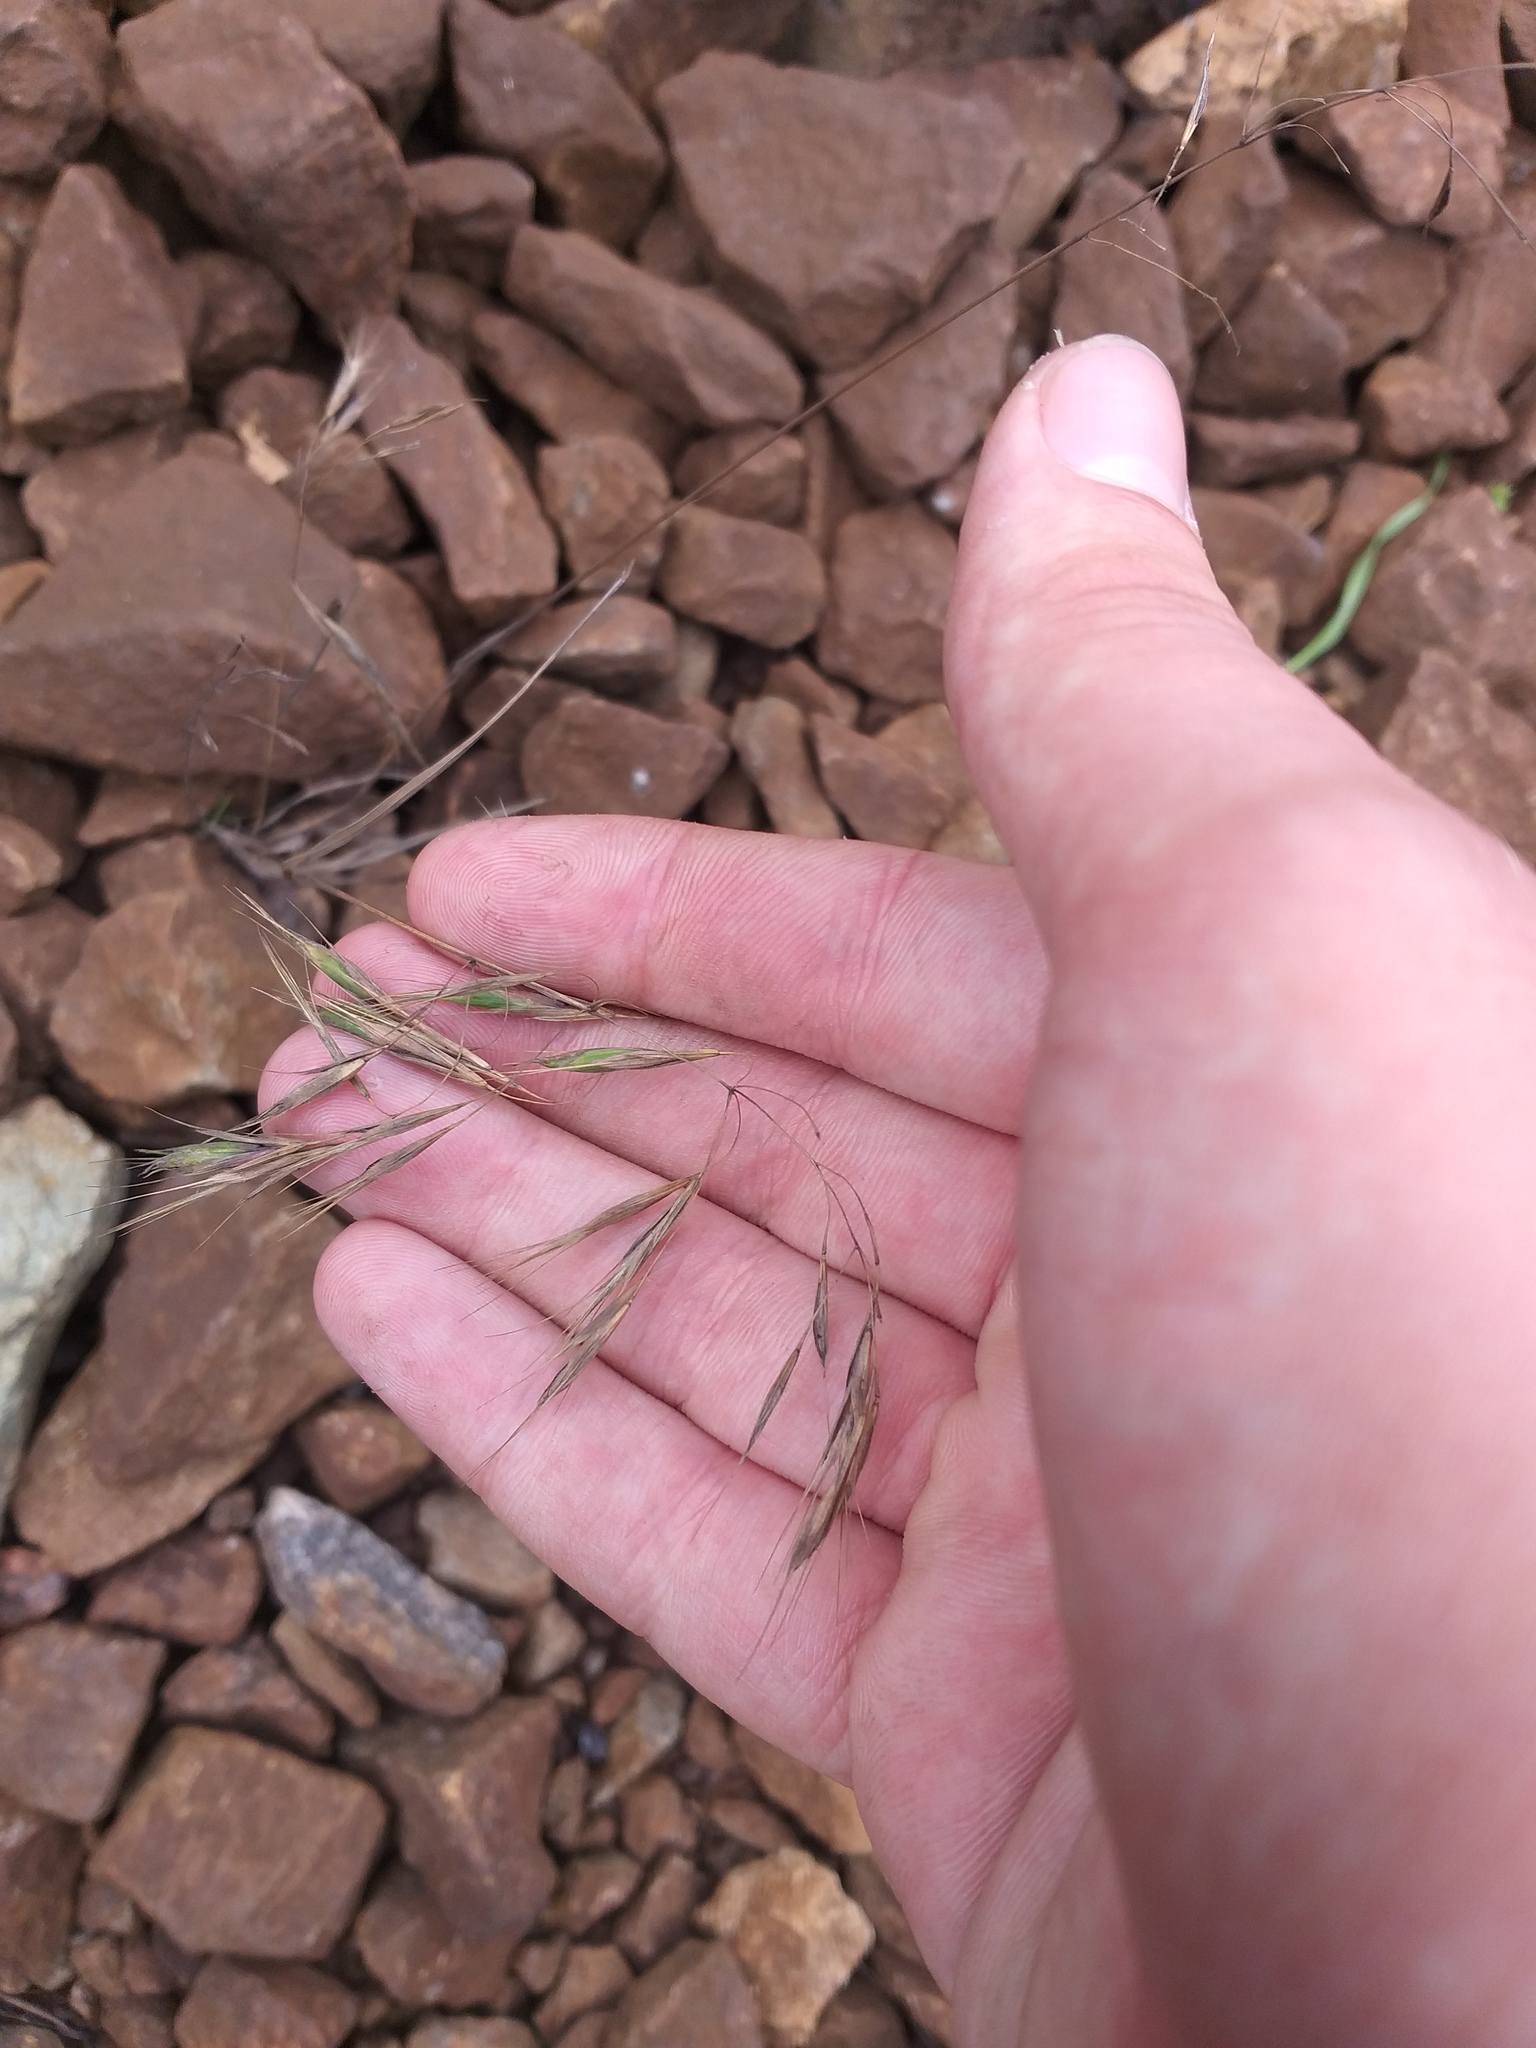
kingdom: Plantae
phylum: Tracheophyta
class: Liliopsida
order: Poales
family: Poaceae
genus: Bromus
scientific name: Bromus tectorum
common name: Cheatgrass
